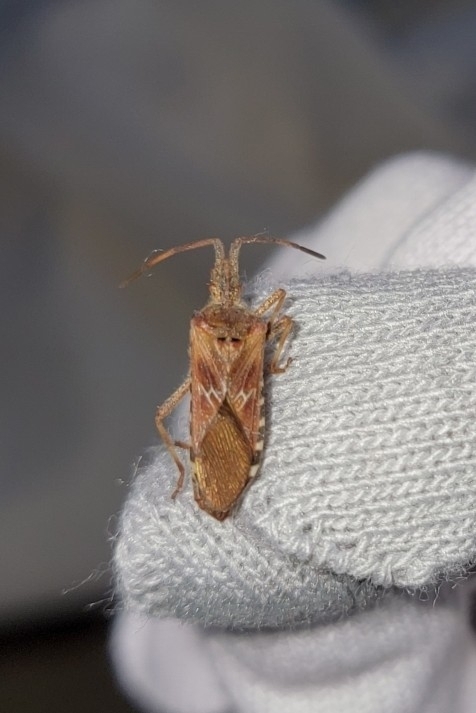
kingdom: Animalia
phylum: Arthropoda
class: Insecta
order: Hemiptera
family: Coreidae
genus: Leptoglossus
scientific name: Leptoglossus occidentalis
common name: Western conifer-seed bug
